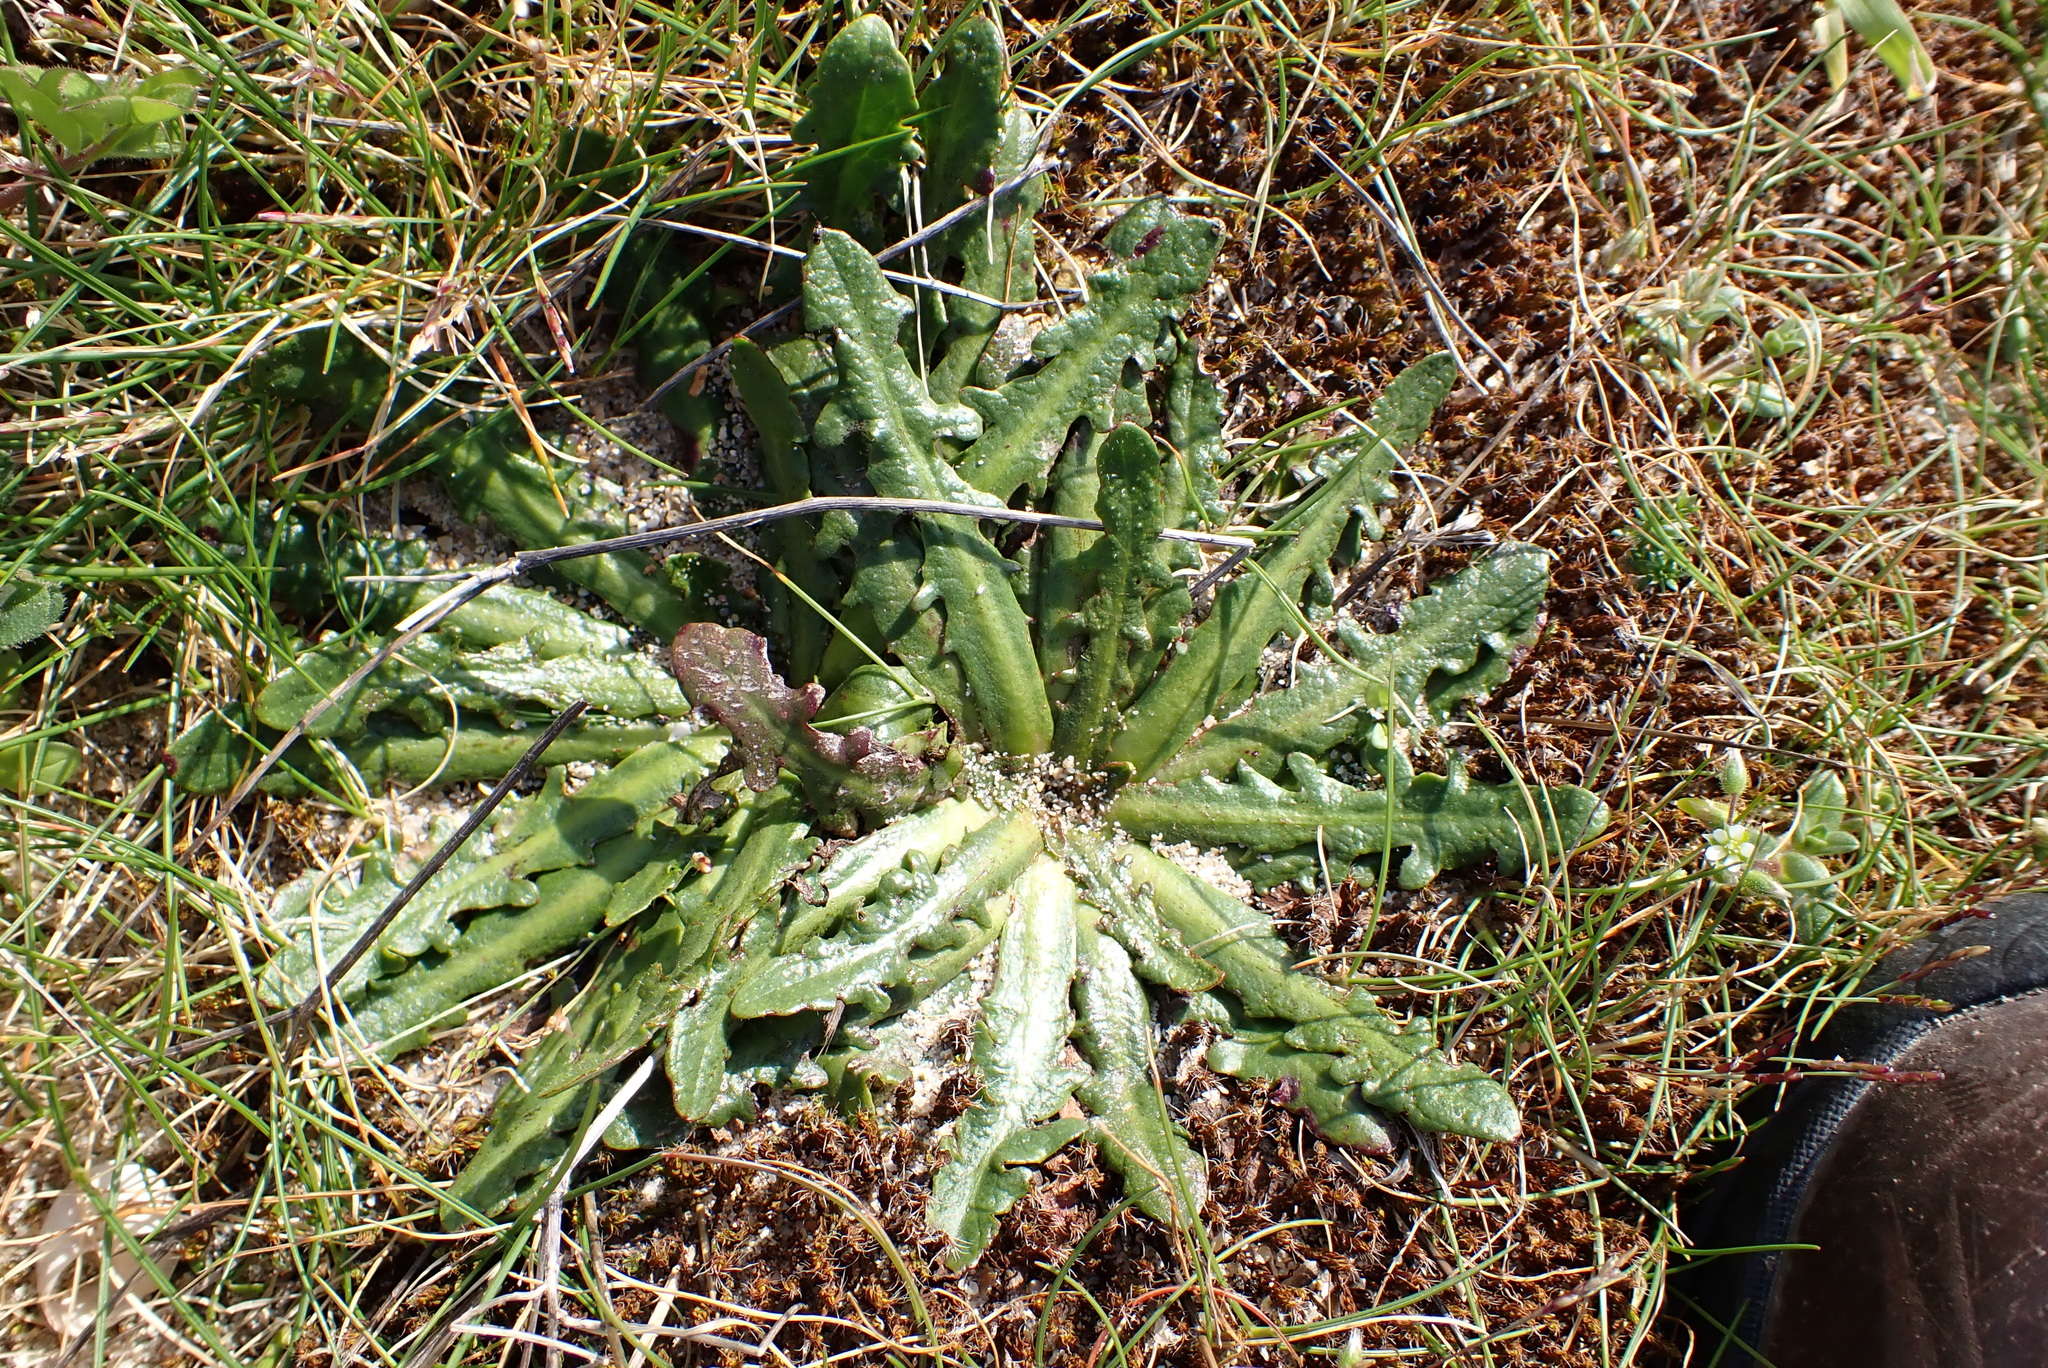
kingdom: Plantae
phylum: Tracheophyta
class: Magnoliopsida
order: Asterales
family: Asteraceae
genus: Hypochaeris
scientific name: Hypochaeris radicata
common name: Flatweed
